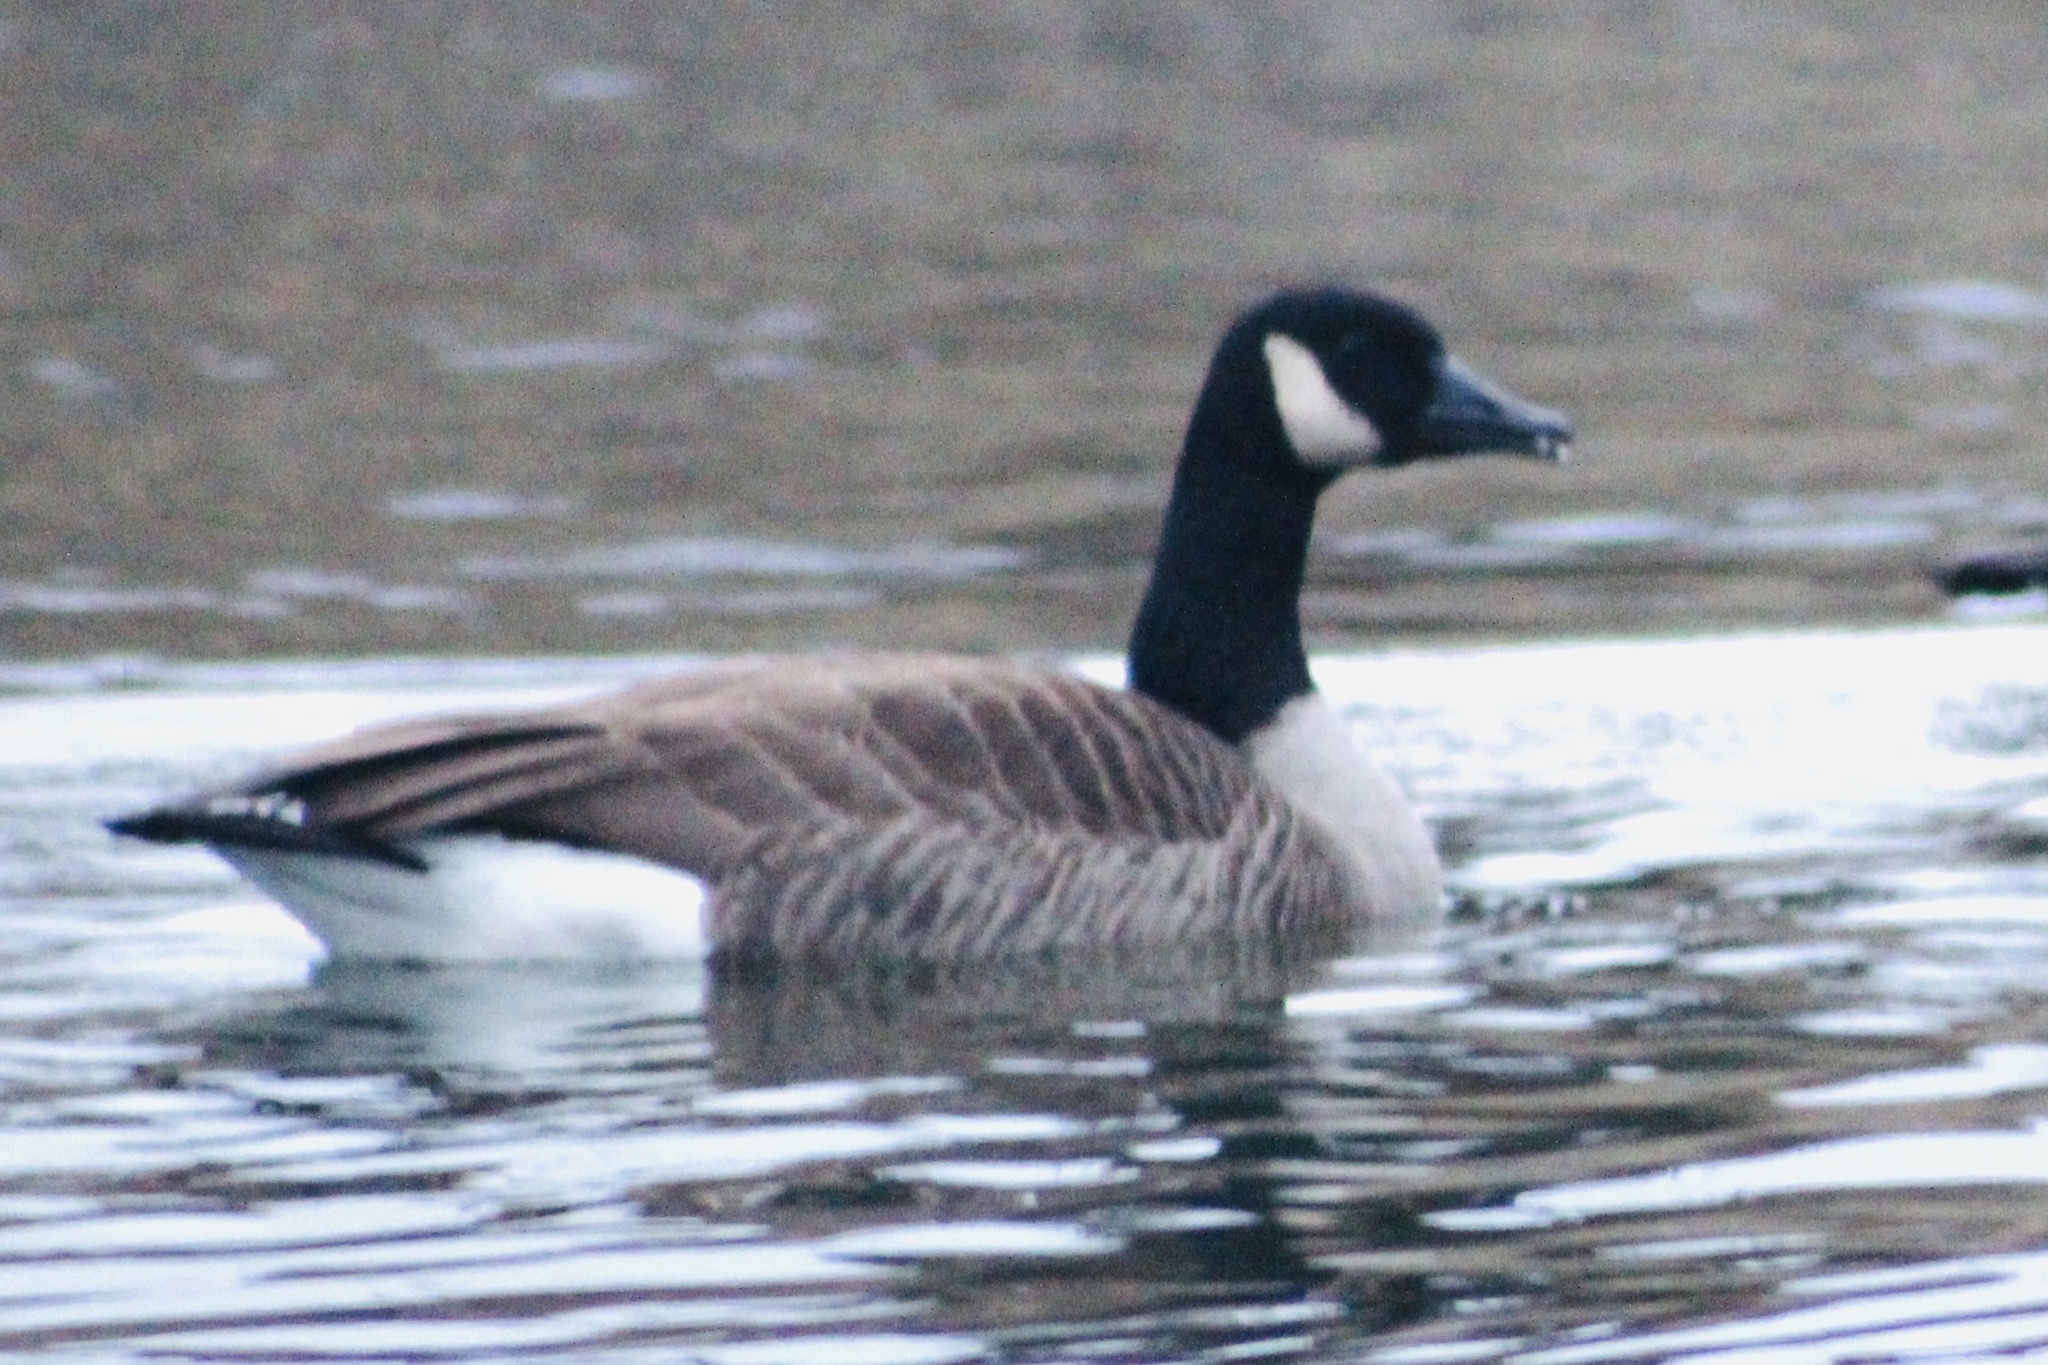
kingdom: Animalia
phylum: Chordata
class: Aves
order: Anseriformes
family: Anatidae
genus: Branta
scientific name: Branta canadensis
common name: Canada goose
